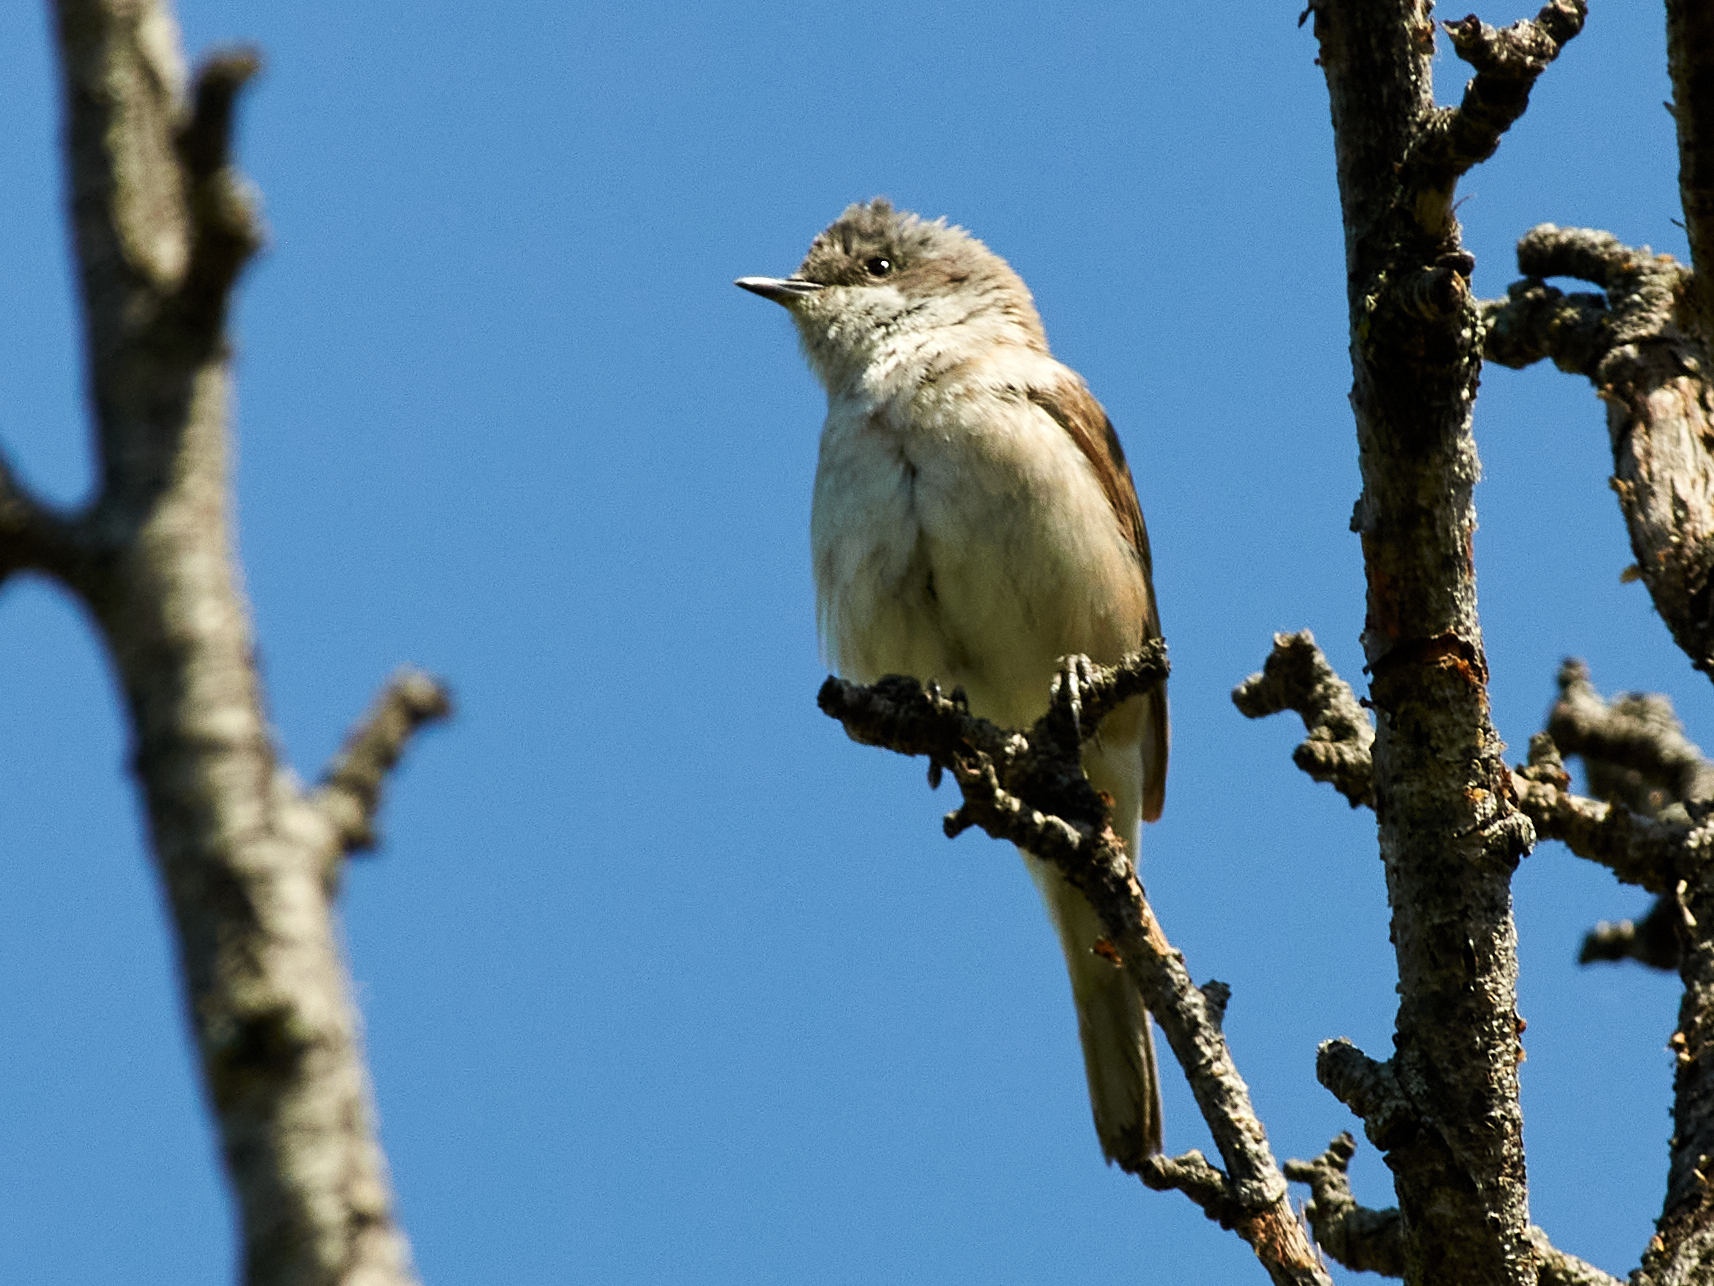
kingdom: Animalia
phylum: Chordata
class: Aves
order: Passeriformes
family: Sylviidae
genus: Sylvia
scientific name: Sylvia curruca
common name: Lesser whitethroat
